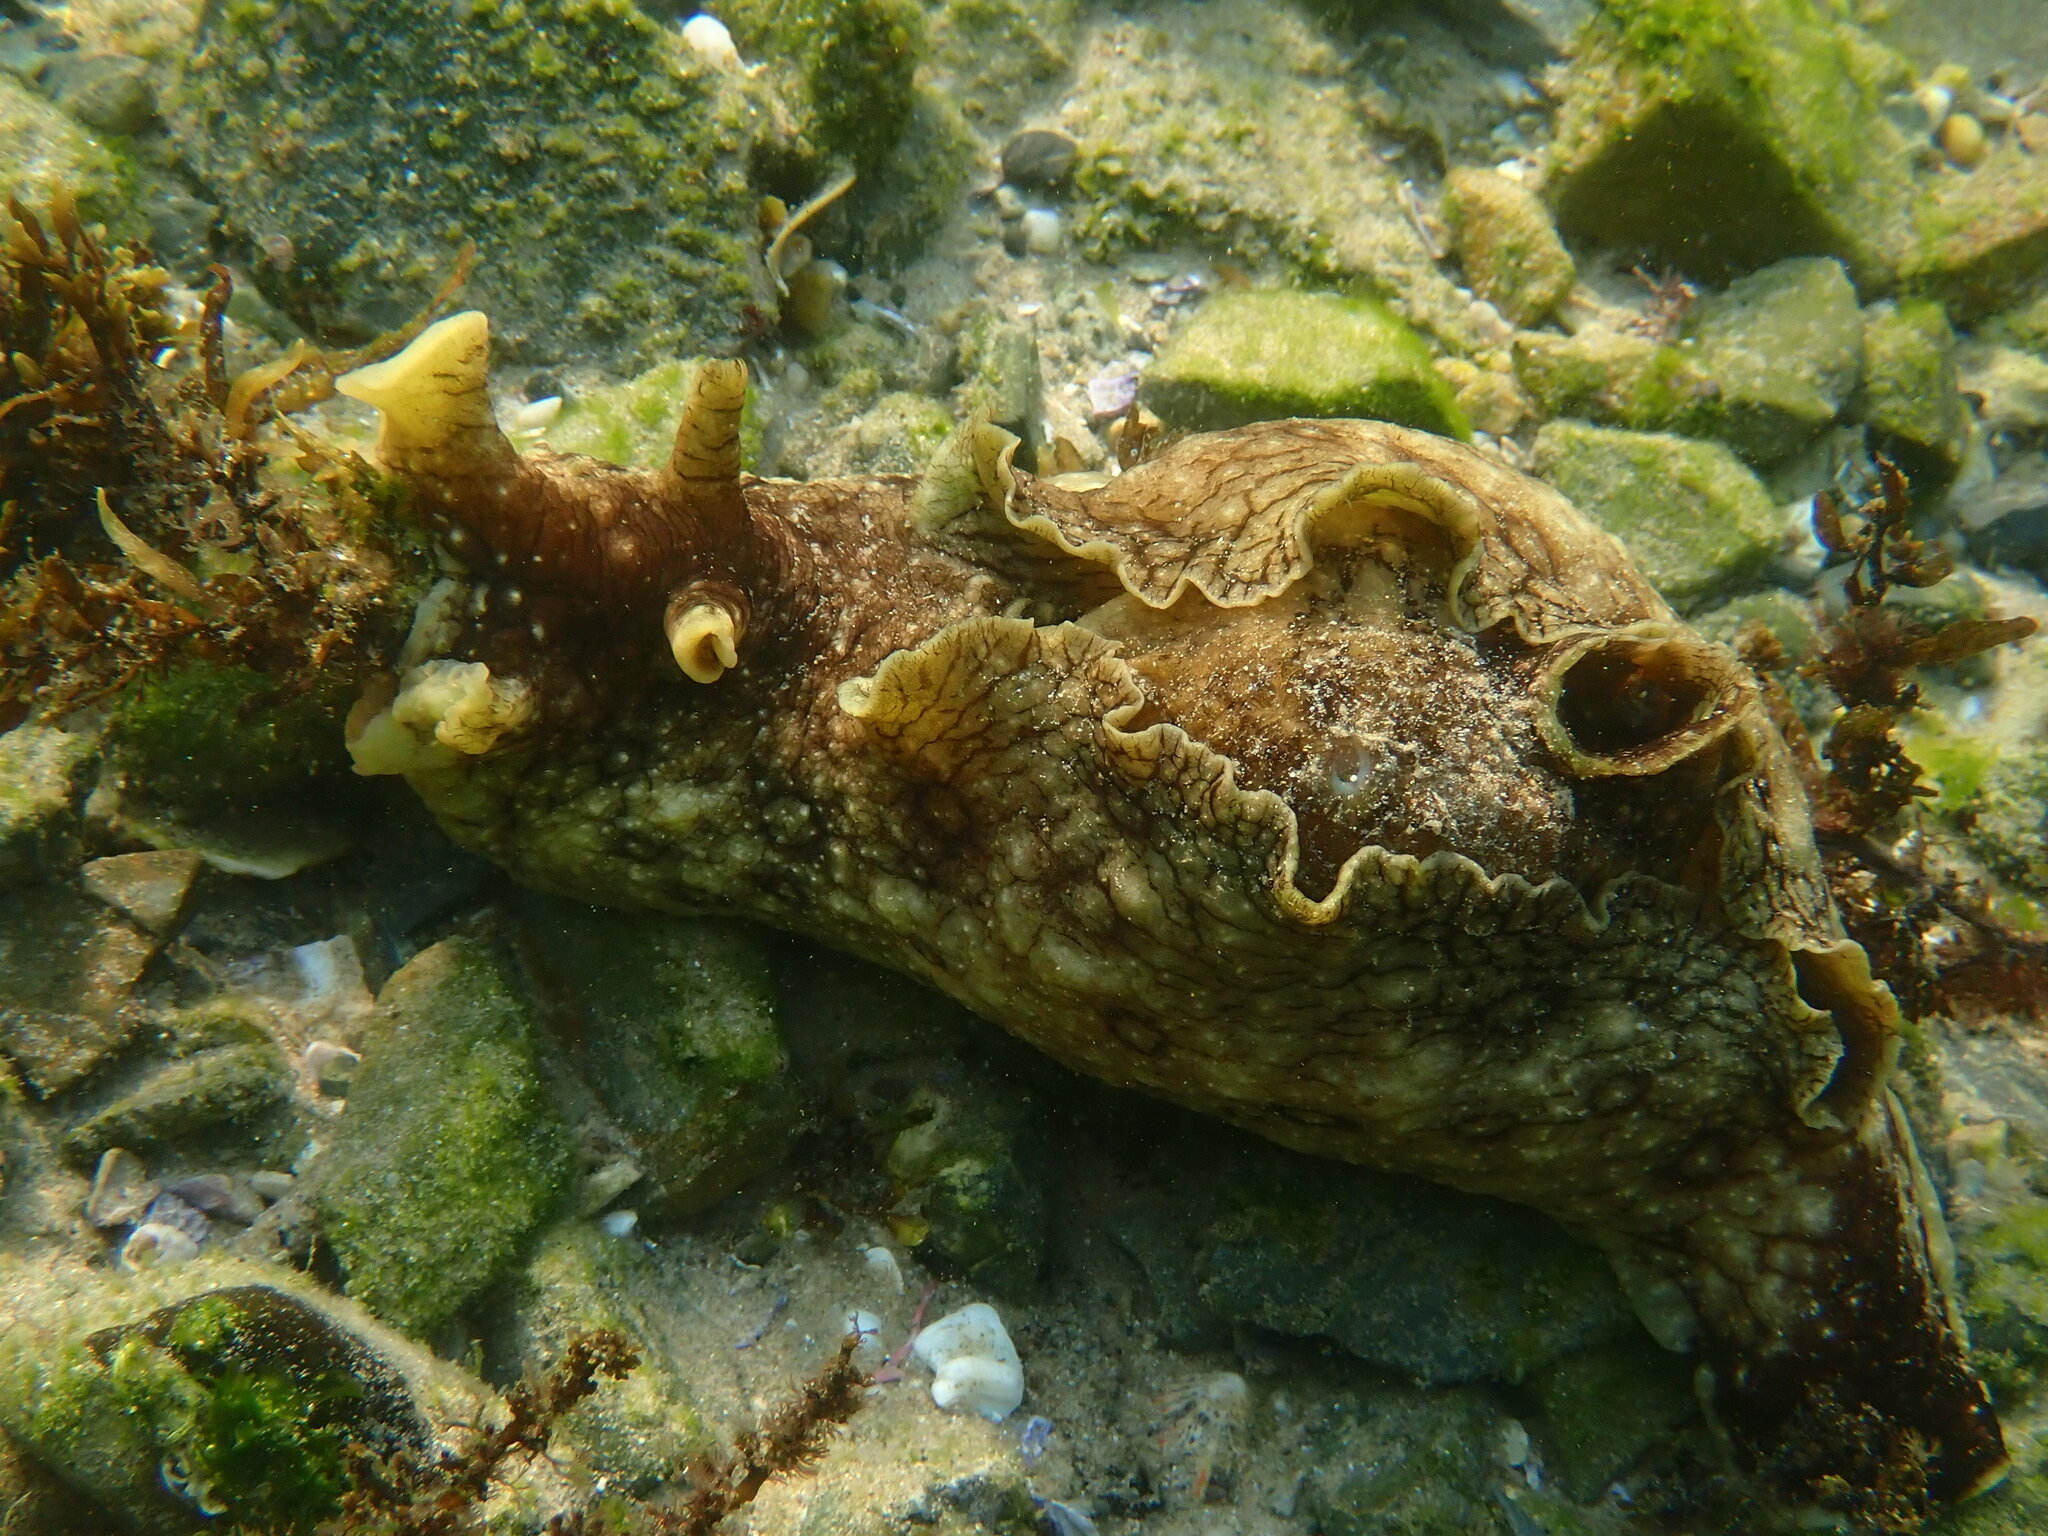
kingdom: Animalia
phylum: Mollusca
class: Gastropoda
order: Aplysiida
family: Aplysiidae
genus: Aplysia
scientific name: Aplysia argus
